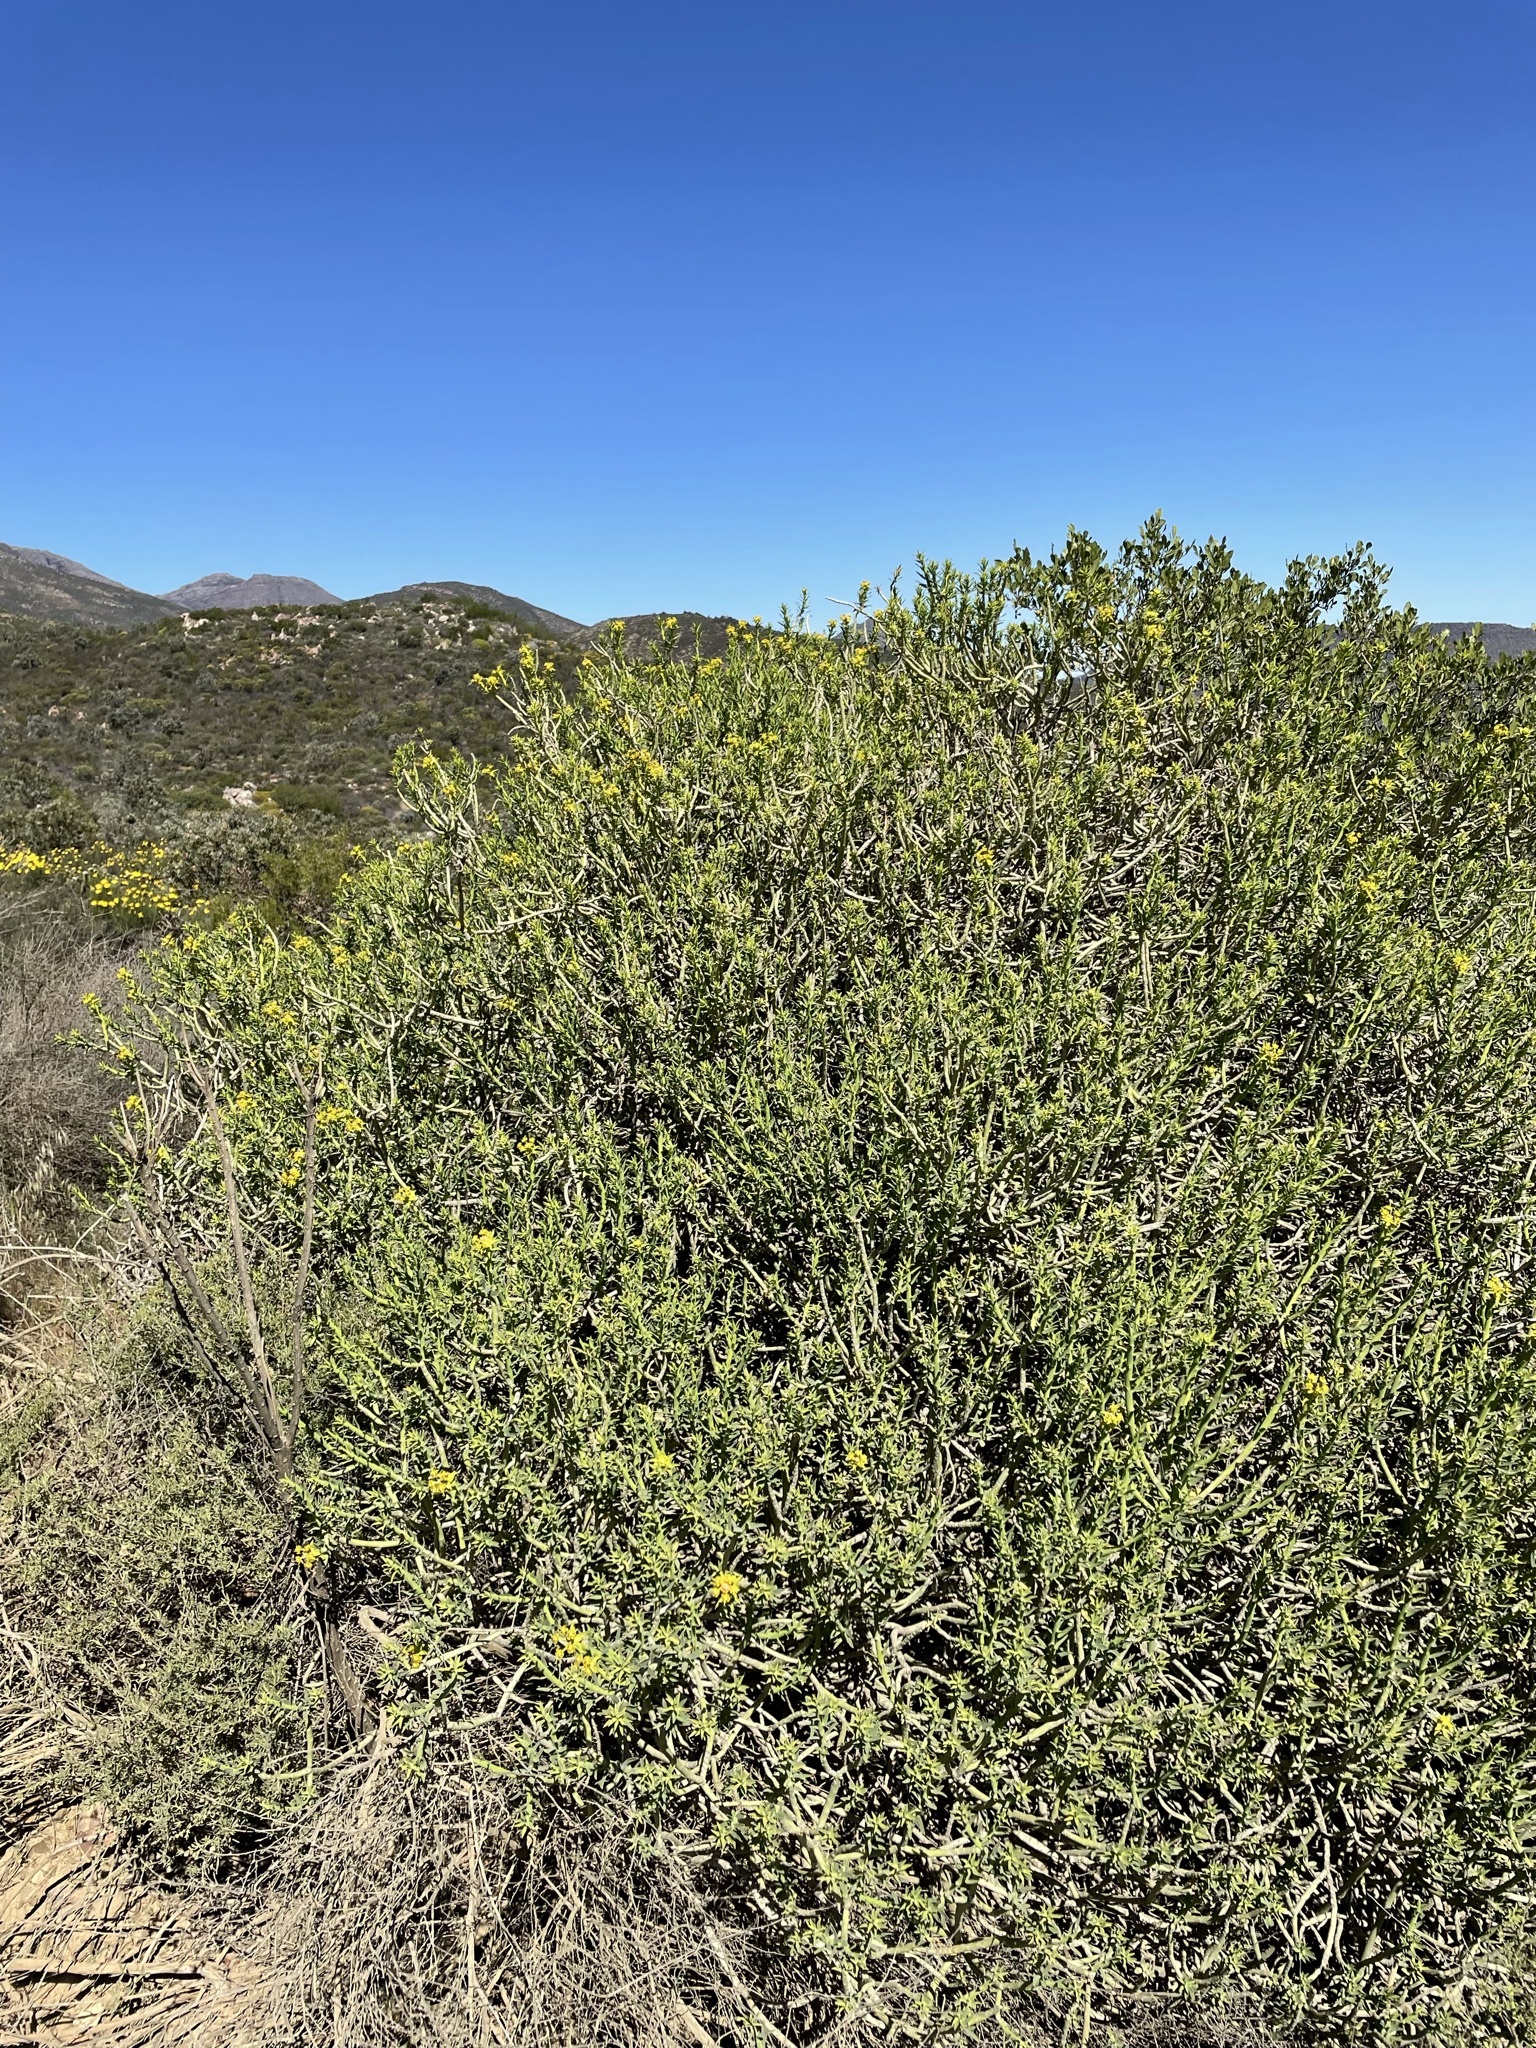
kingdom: Plantae
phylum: Tracheophyta
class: Magnoliopsida
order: Malpighiales
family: Euphorbiaceae
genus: Euphorbia
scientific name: Euphorbia mauritanica
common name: Jackal's-food
